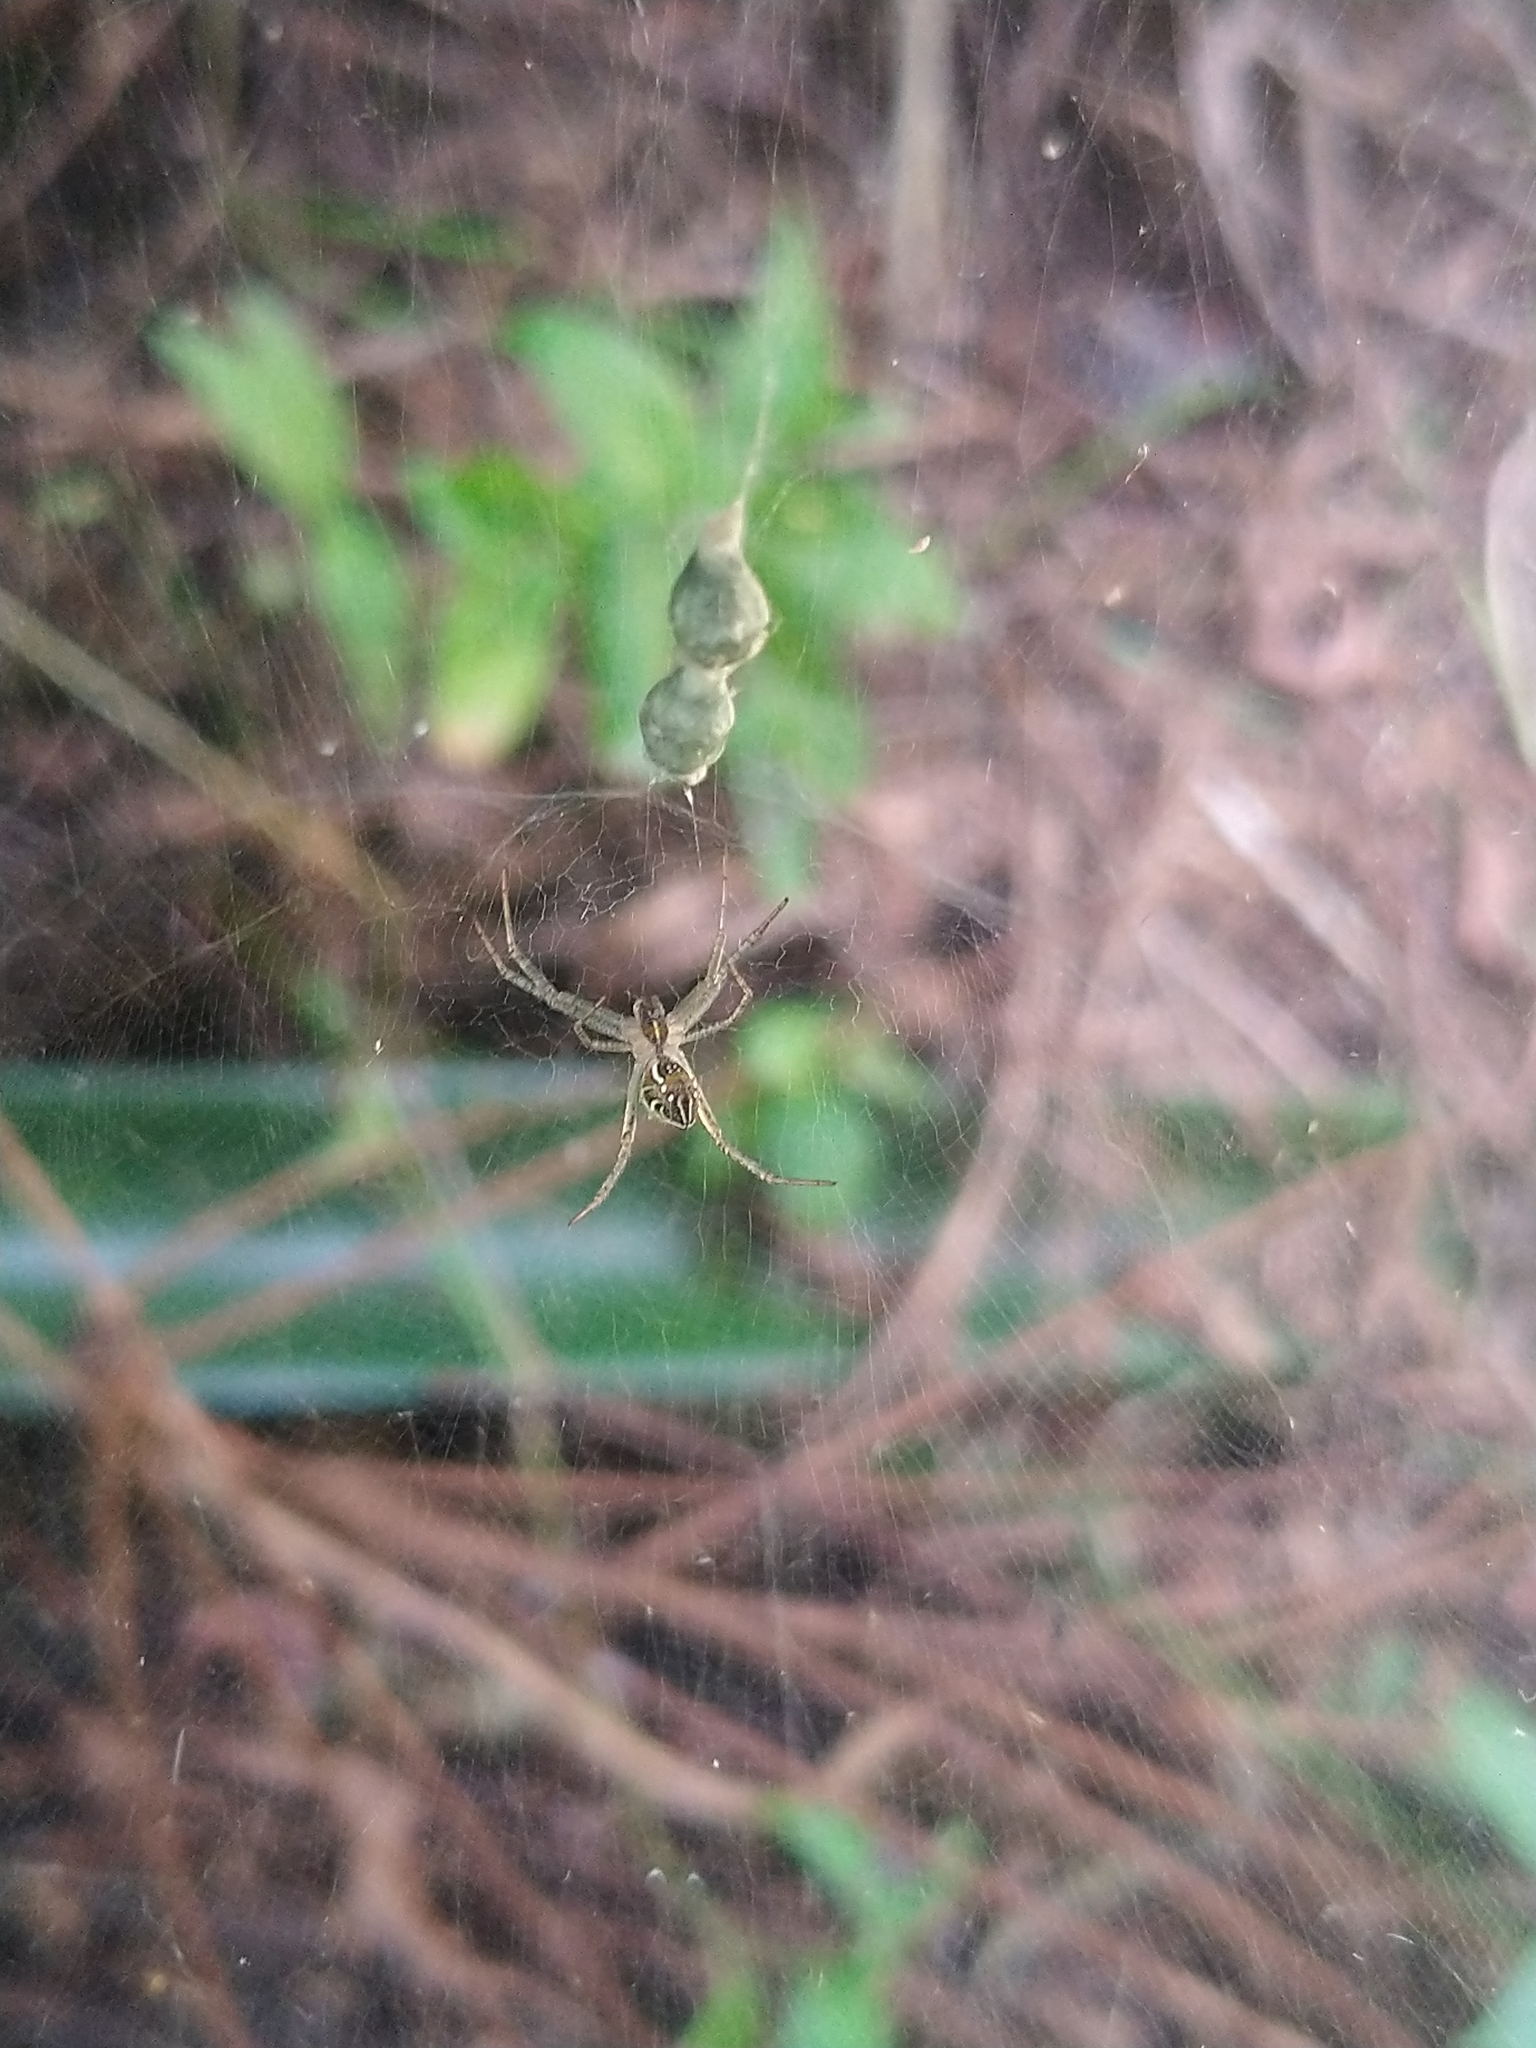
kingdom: Animalia
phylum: Arthropoda
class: Arachnida
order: Araneae
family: Araneidae
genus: Cyrtophora
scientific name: Cyrtophora cicatrosa
